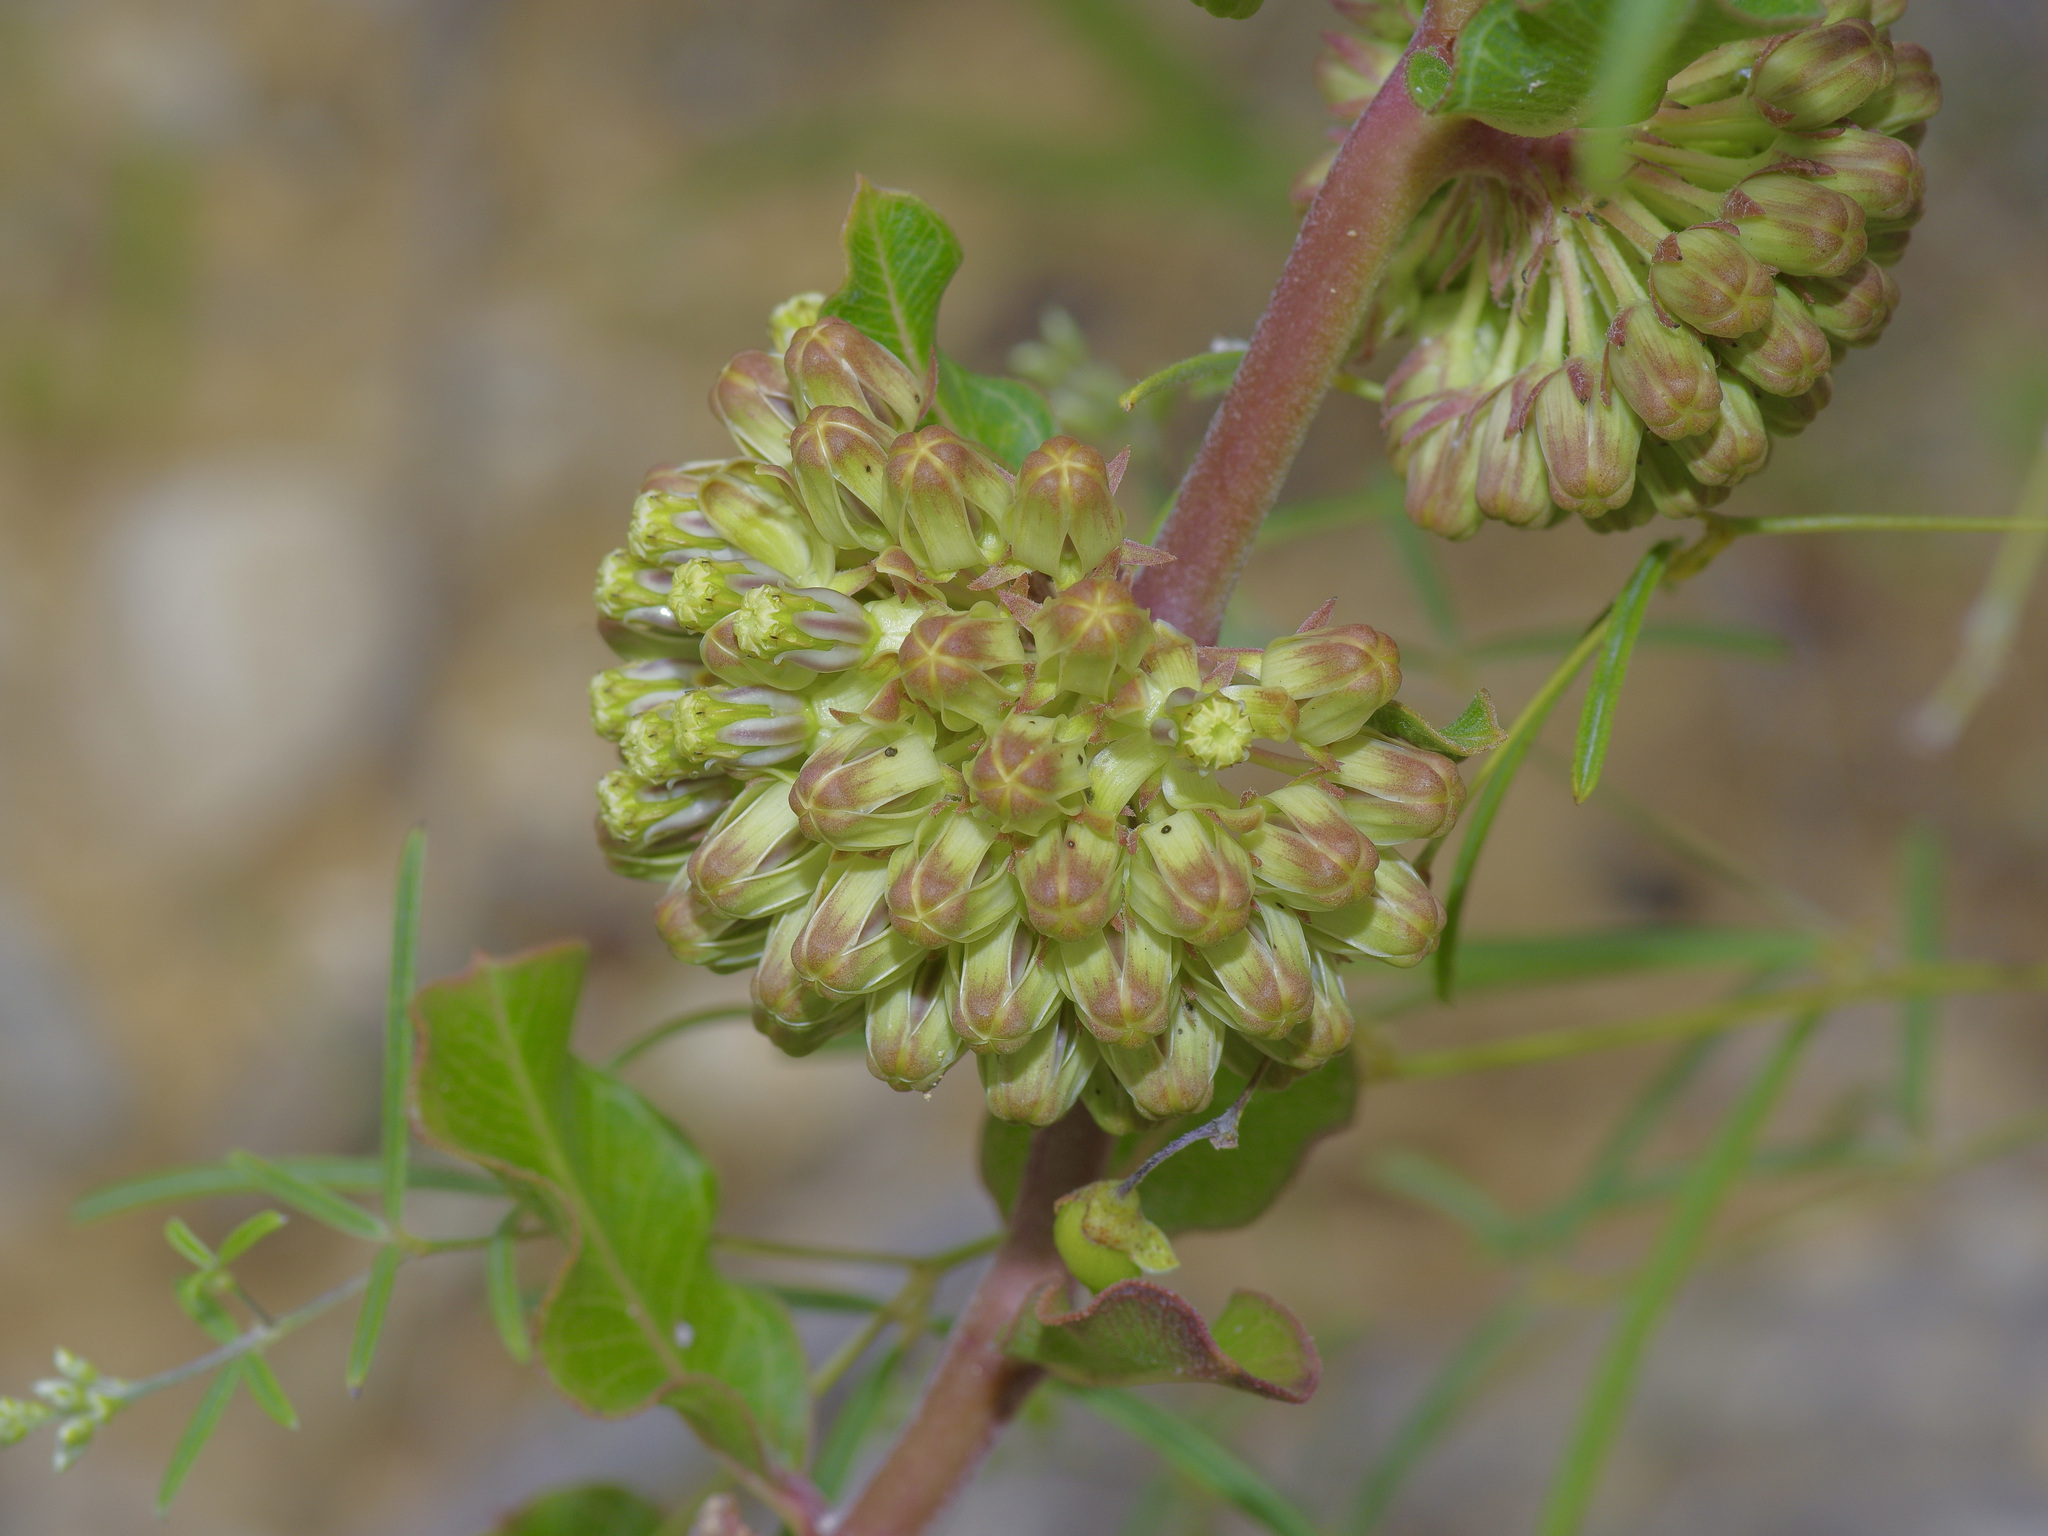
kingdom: Plantae
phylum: Tracheophyta
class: Magnoliopsida
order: Gentianales
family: Apocynaceae
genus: Asclepias
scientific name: Asclepias viridiflora
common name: Green comet milkweed
